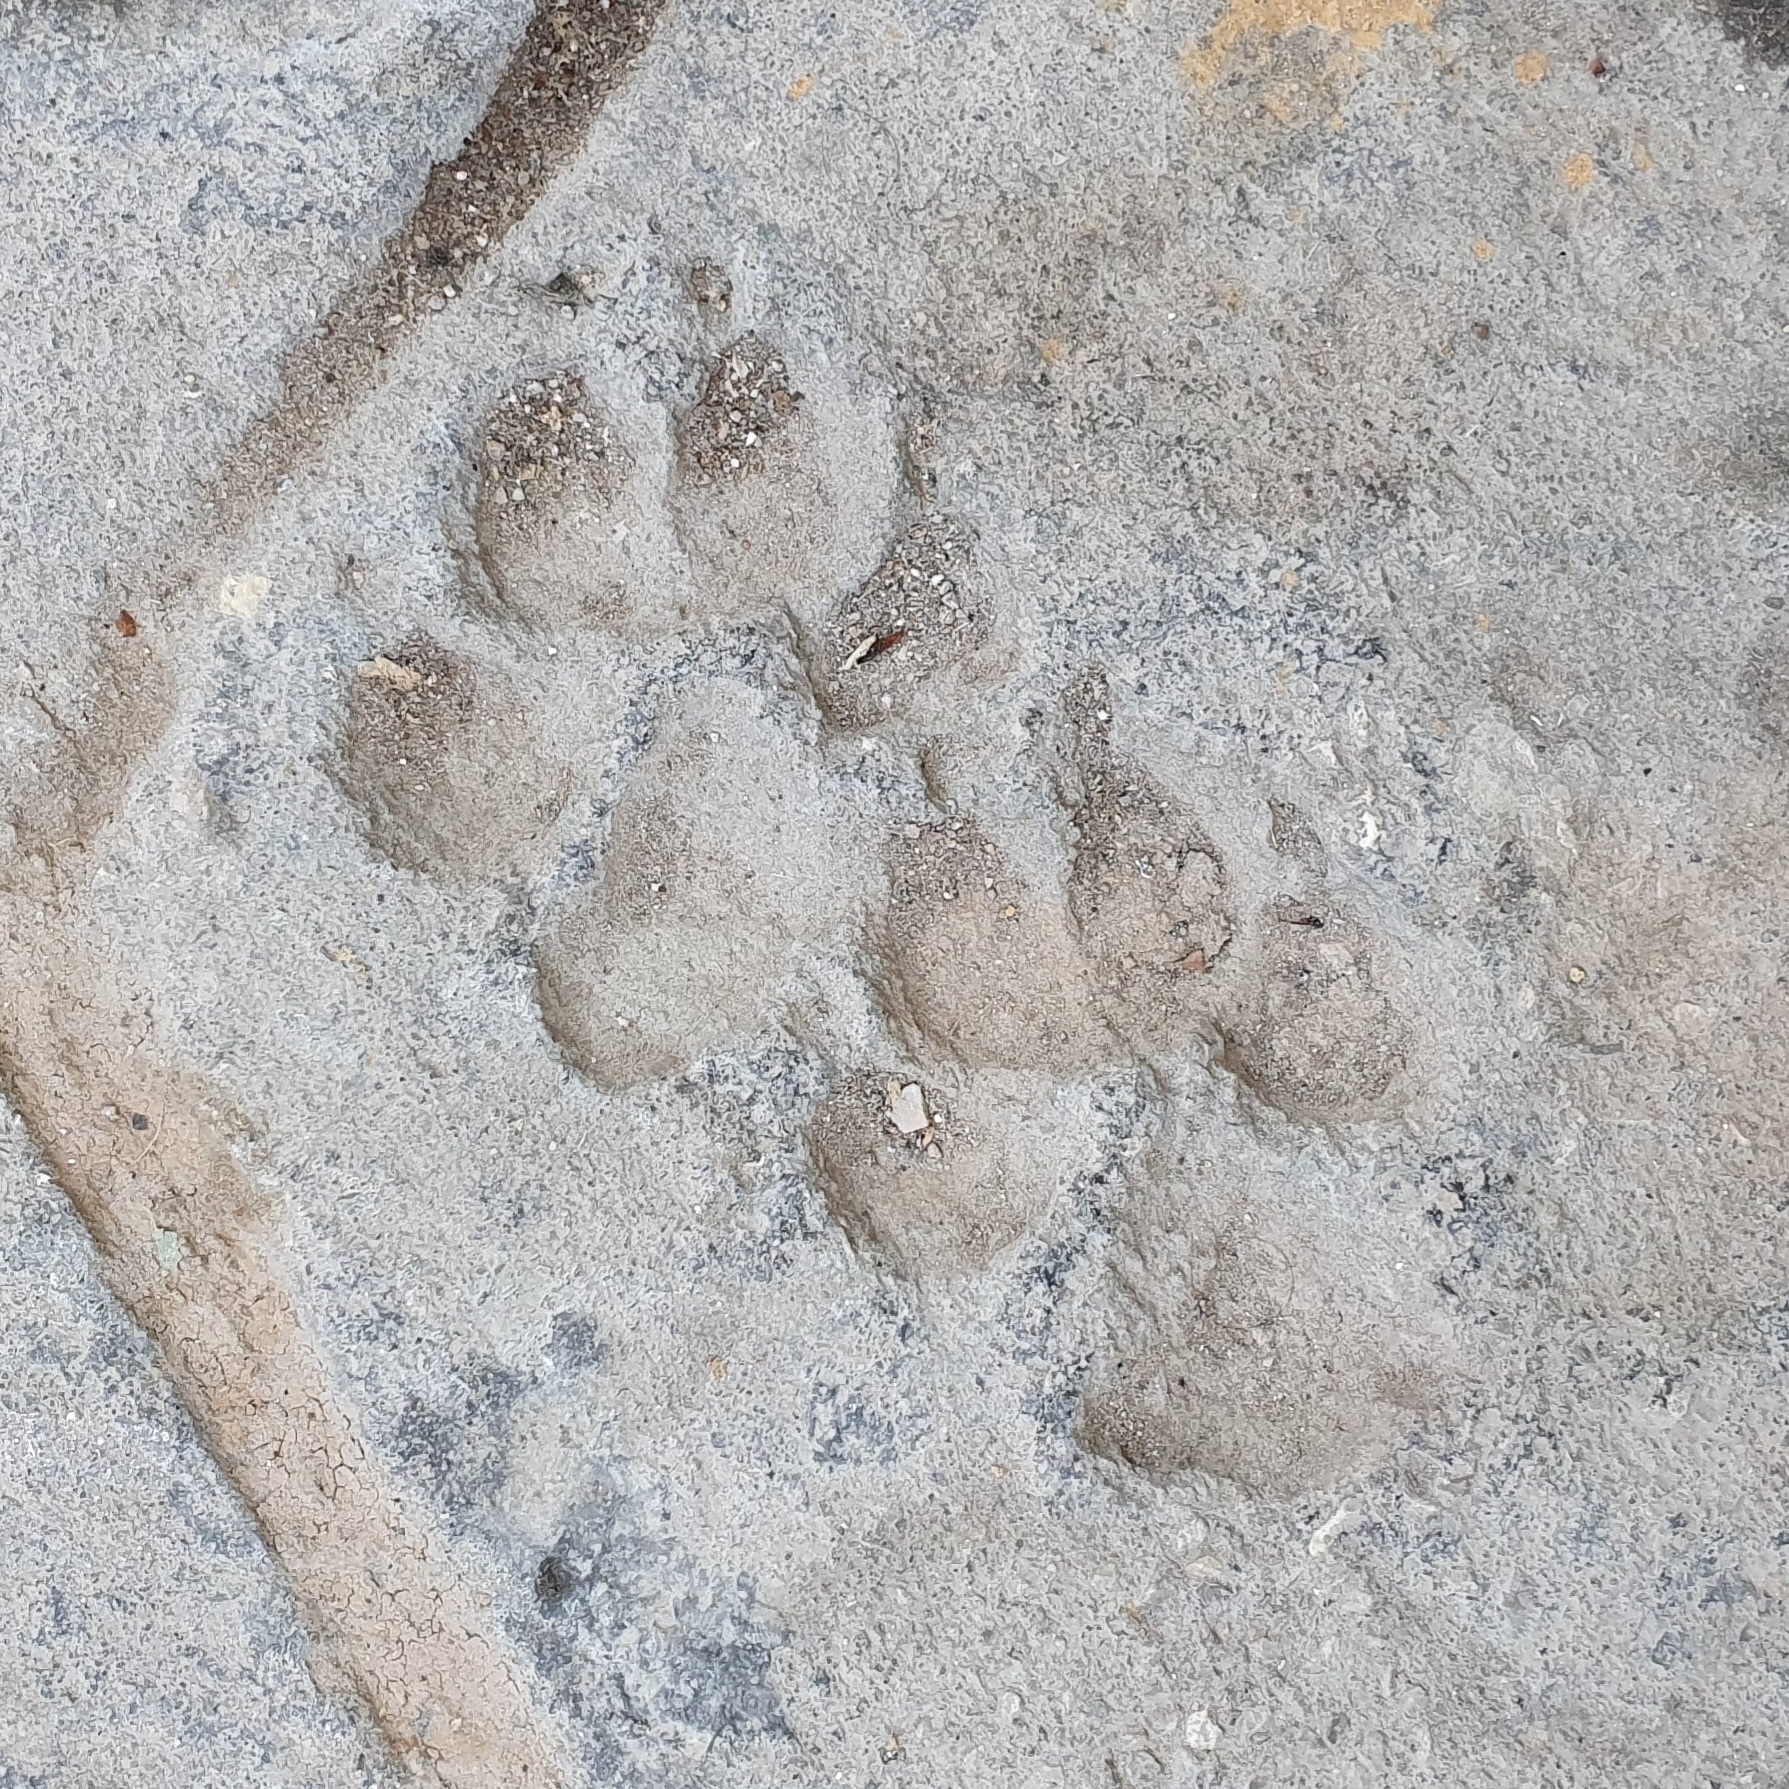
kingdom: Animalia
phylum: Chordata
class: Mammalia
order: Carnivora
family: Canidae
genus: Canis
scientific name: Canis lupus
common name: Gray wolf
